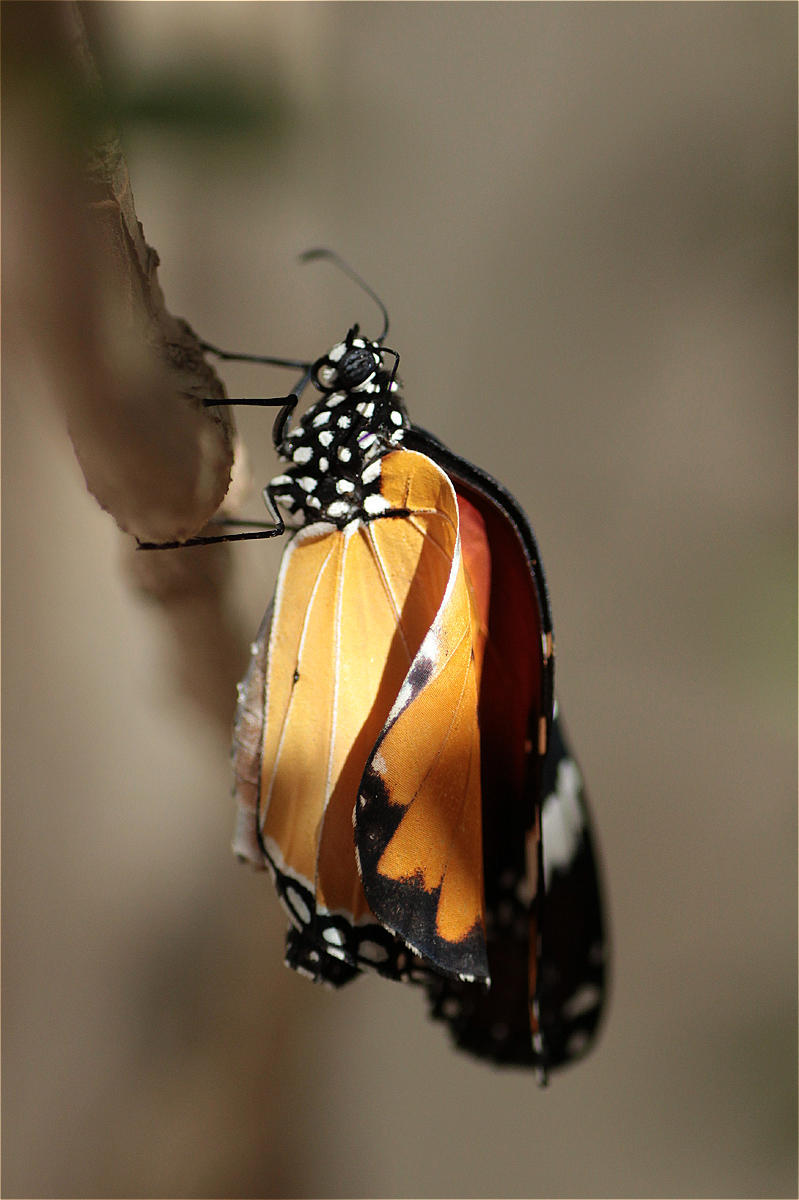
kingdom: Animalia
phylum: Arthropoda
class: Insecta
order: Lepidoptera
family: Nymphalidae
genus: Danaus
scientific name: Danaus chrysippus
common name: Plain tiger
